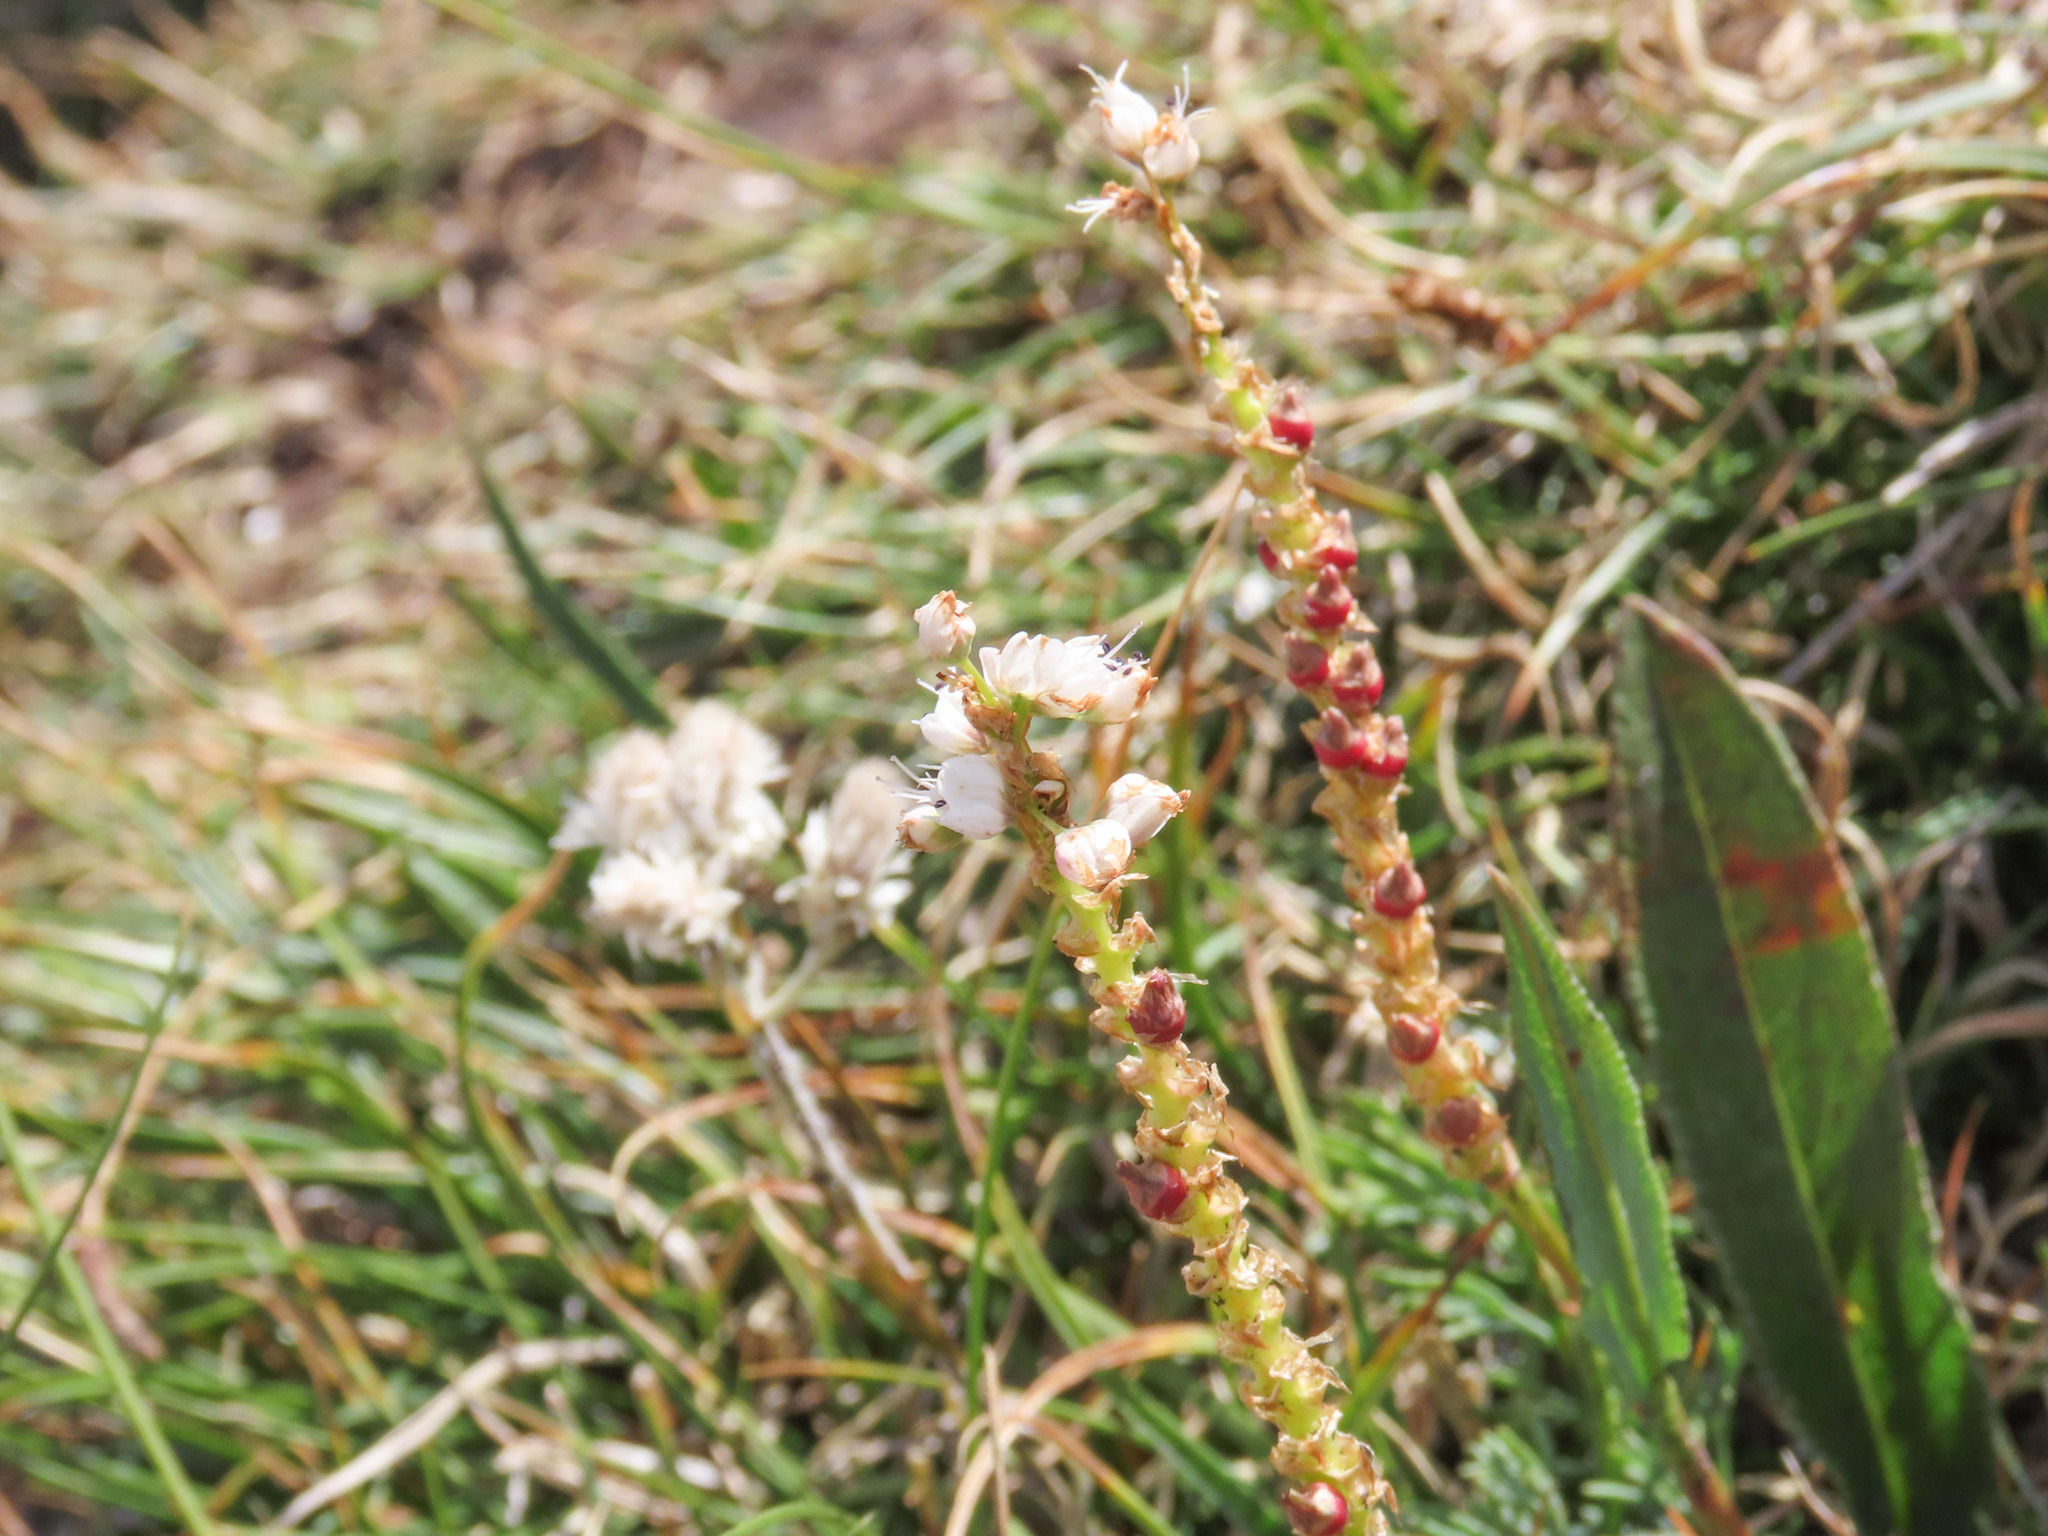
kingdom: Plantae
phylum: Tracheophyta
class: Magnoliopsida
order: Caryophyllales
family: Polygonaceae
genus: Bistorta
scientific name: Bistorta vivipara
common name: Alpine bistort
